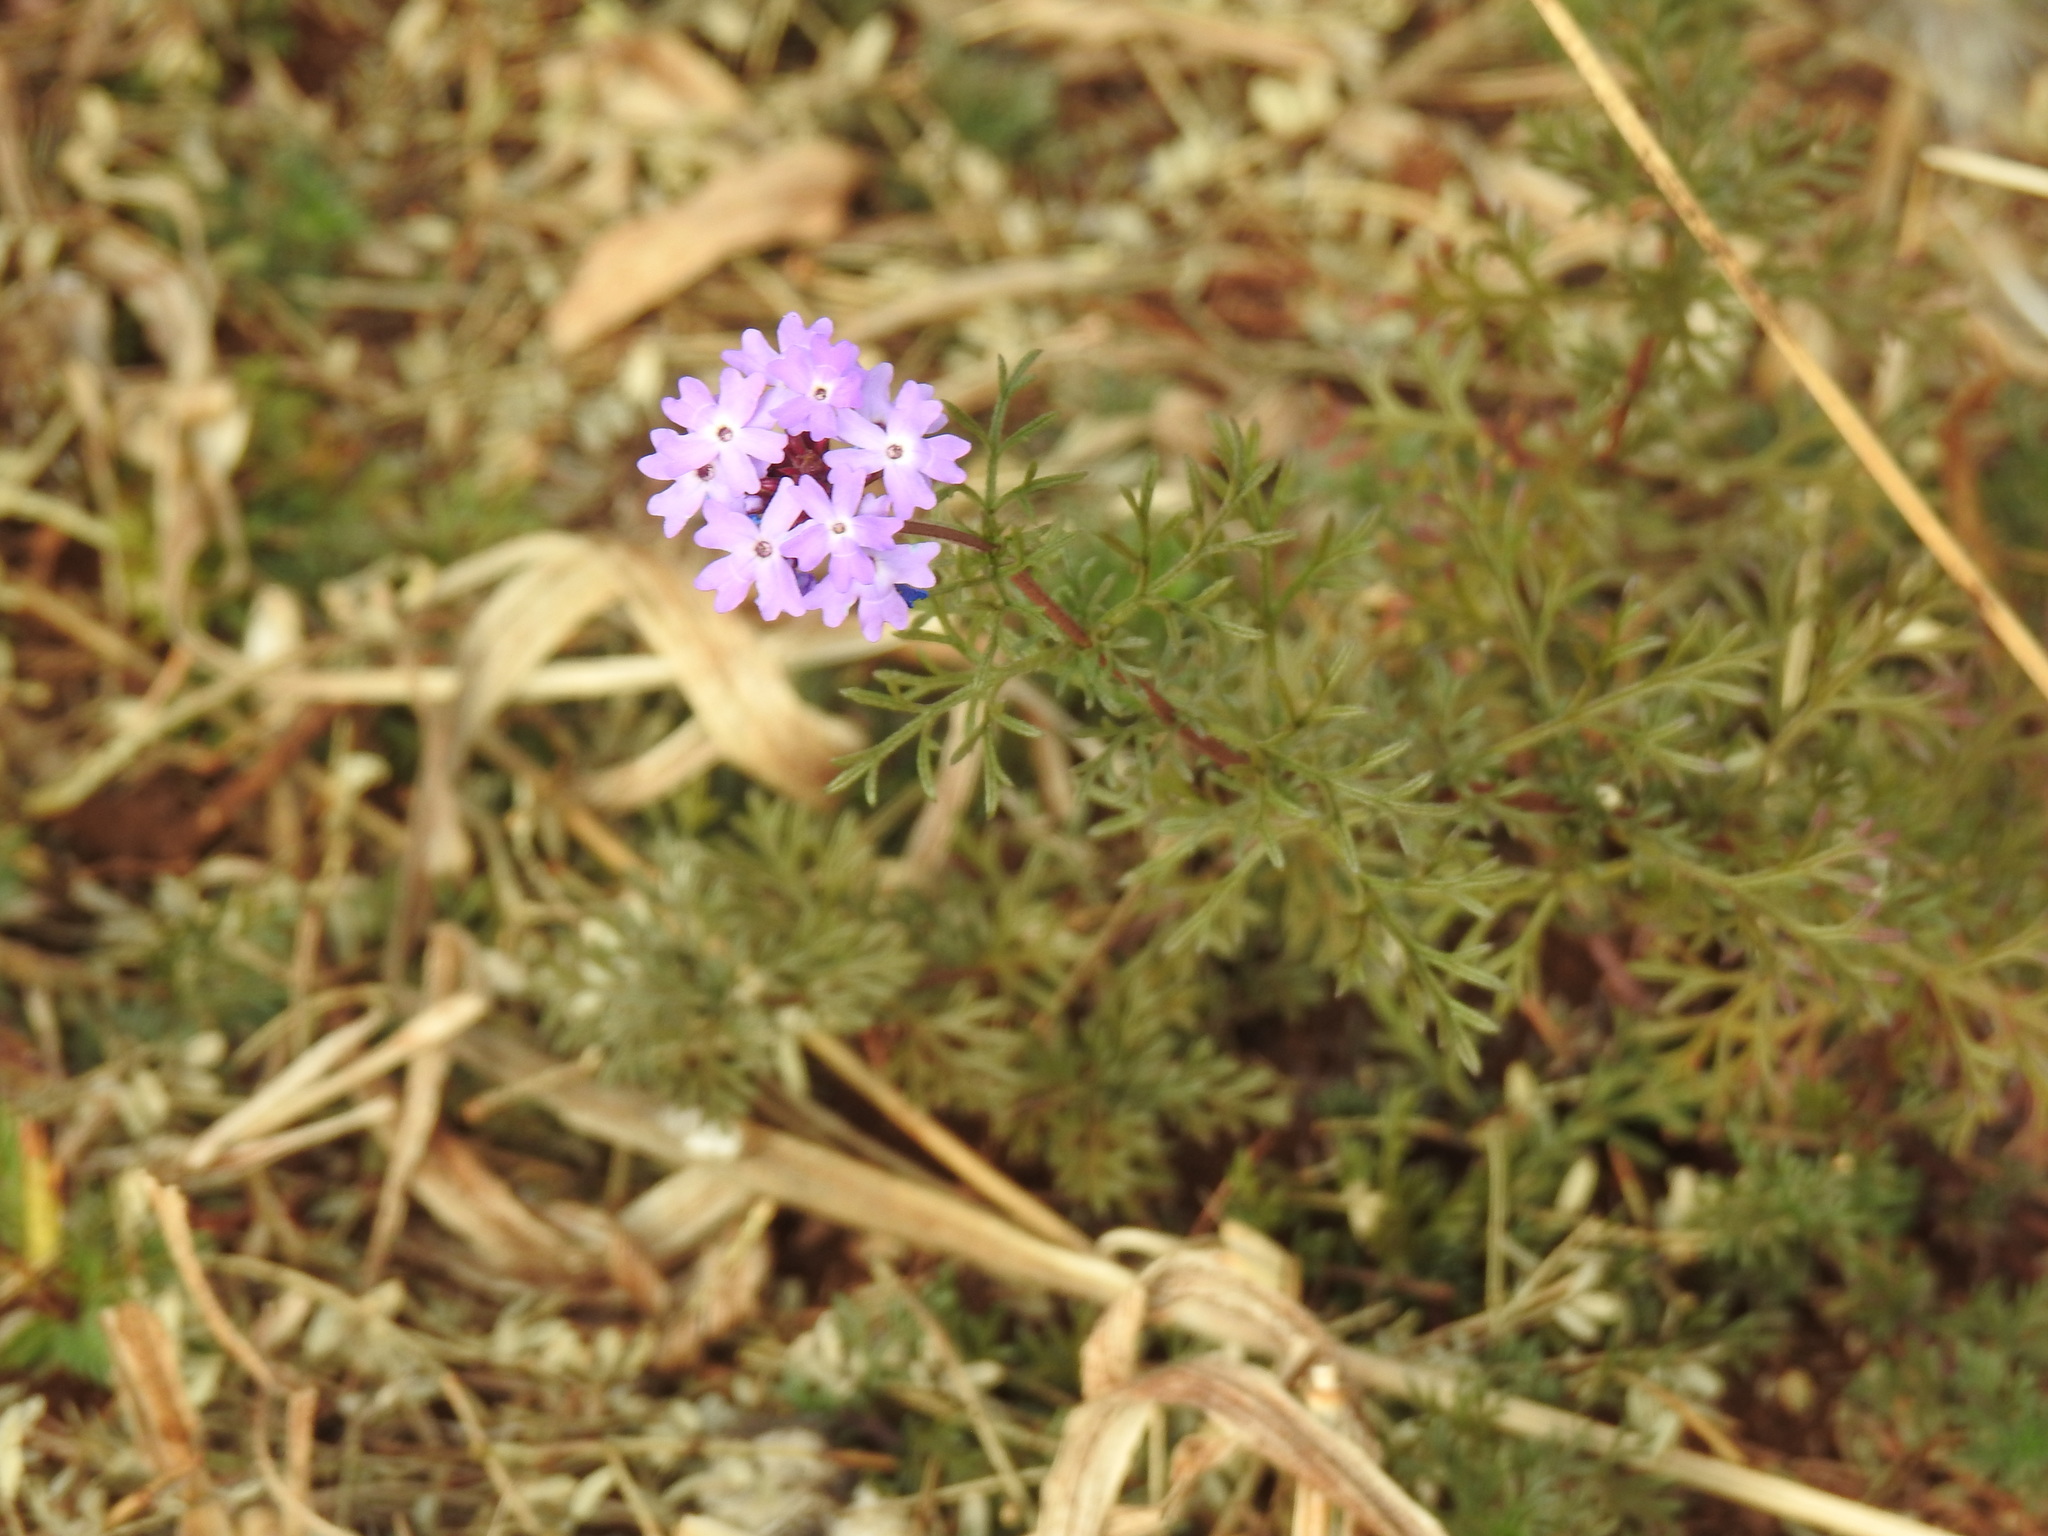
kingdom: Plantae
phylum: Tracheophyta
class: Magnoliopsida
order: Lamiales
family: Verbenaceae
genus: Verbena
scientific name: Verbena aristigera
